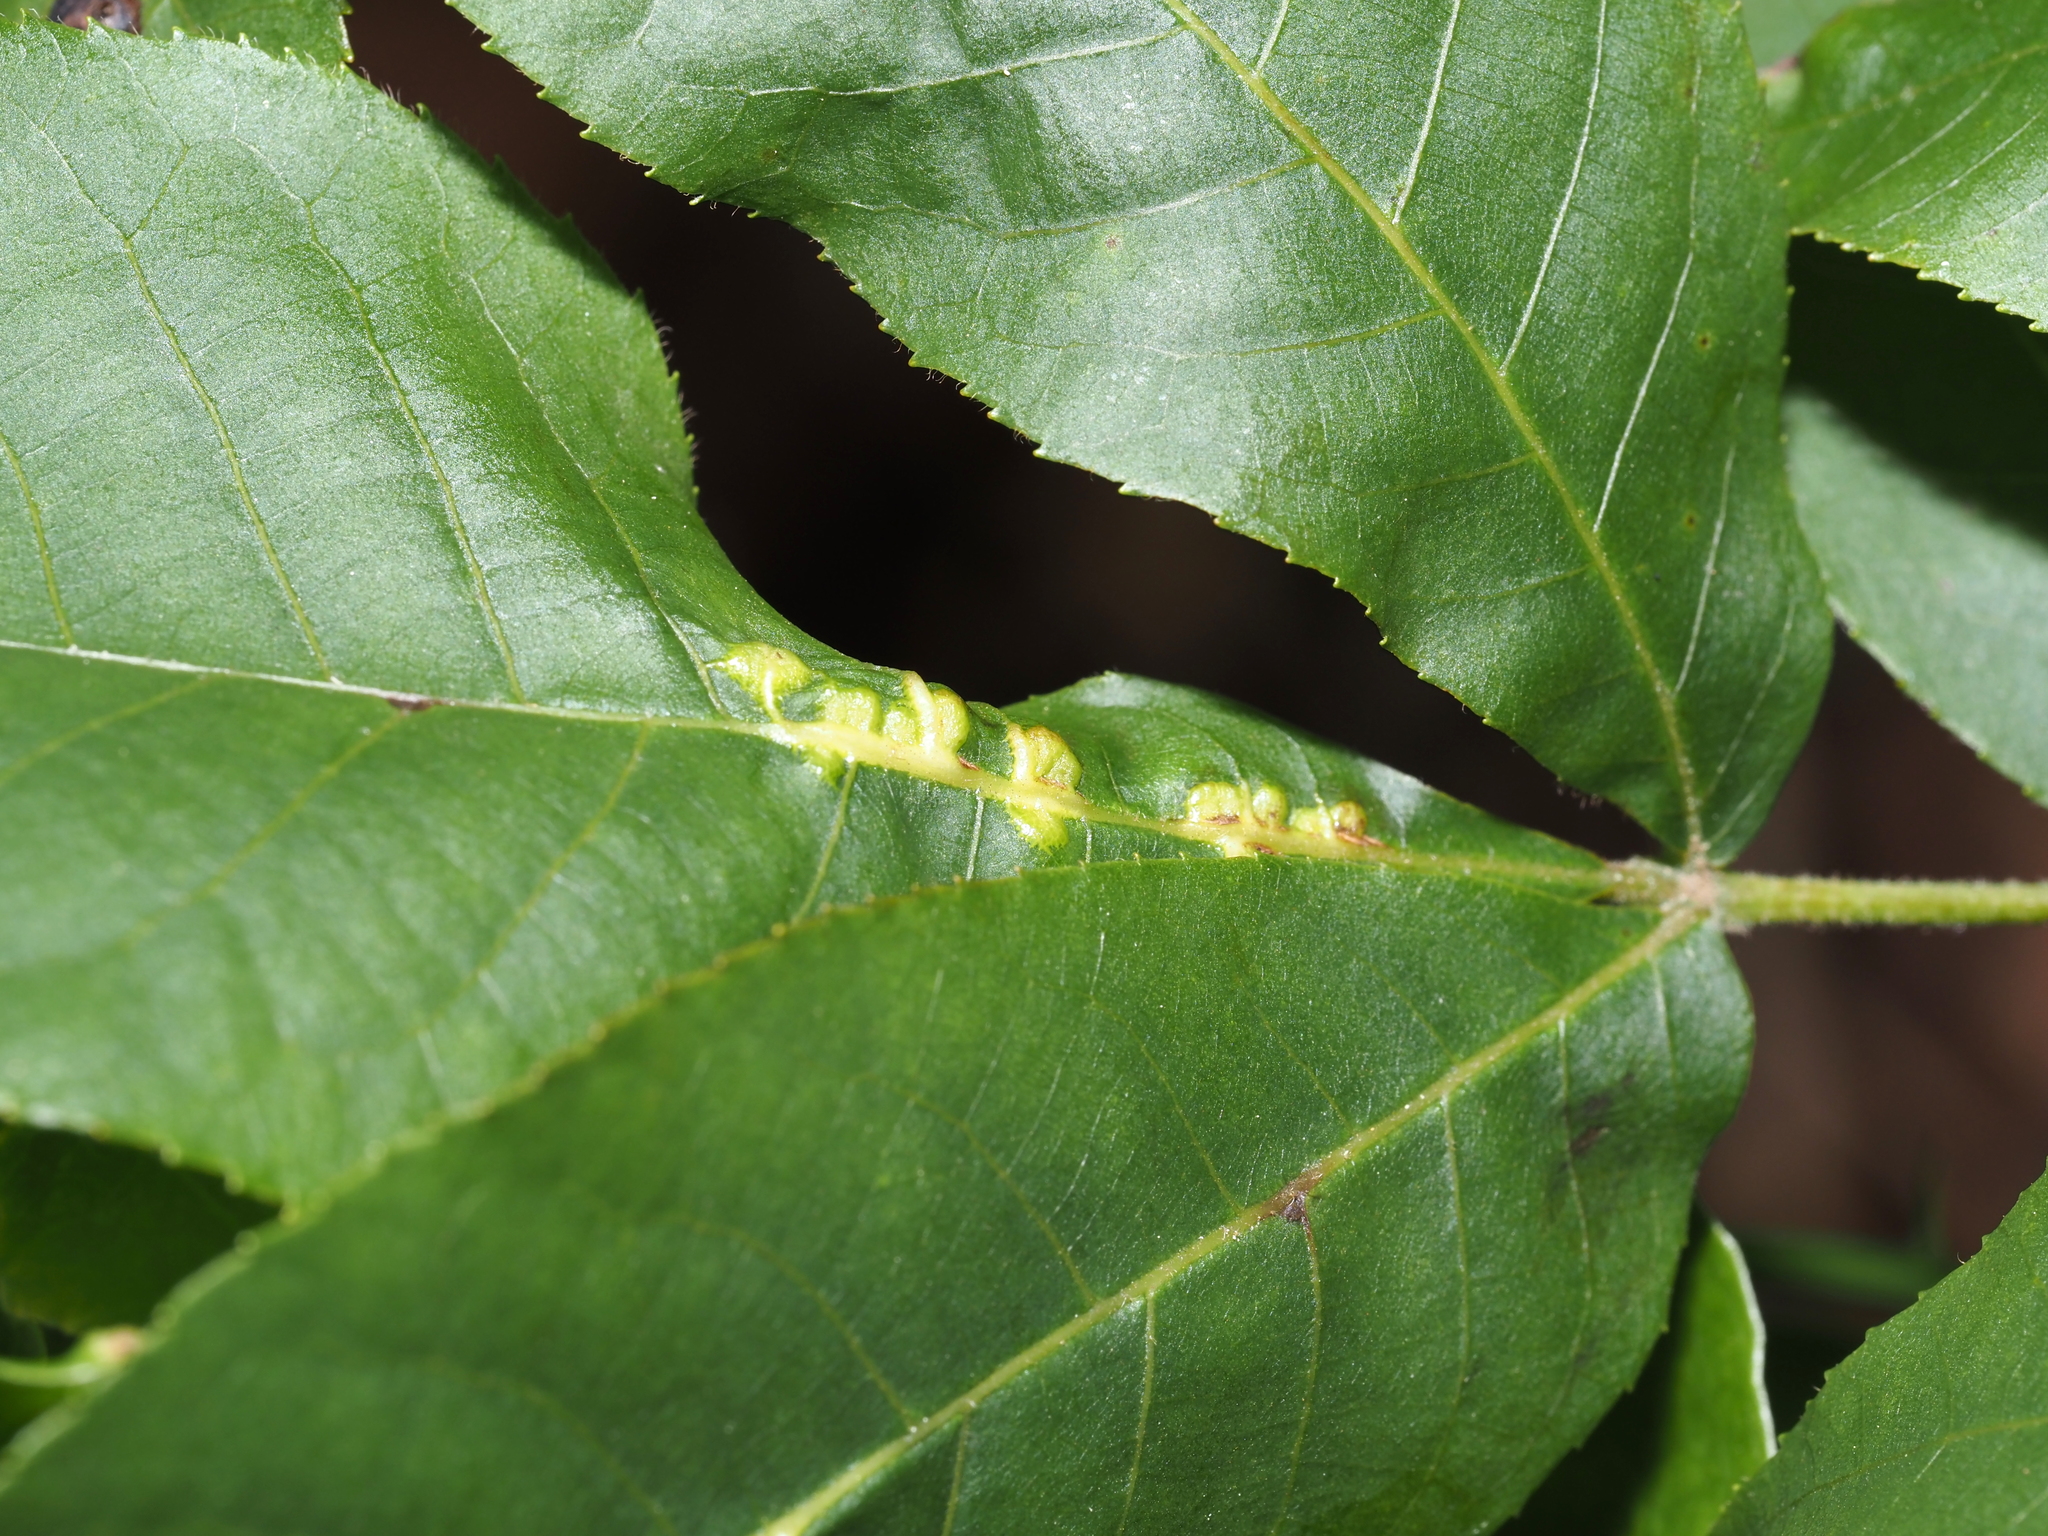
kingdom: Animalia
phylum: Arthropoda
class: Insecta
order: Diptera
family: Cecidomyiidae
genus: Caryomyia
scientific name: Caryomyia aggregata
